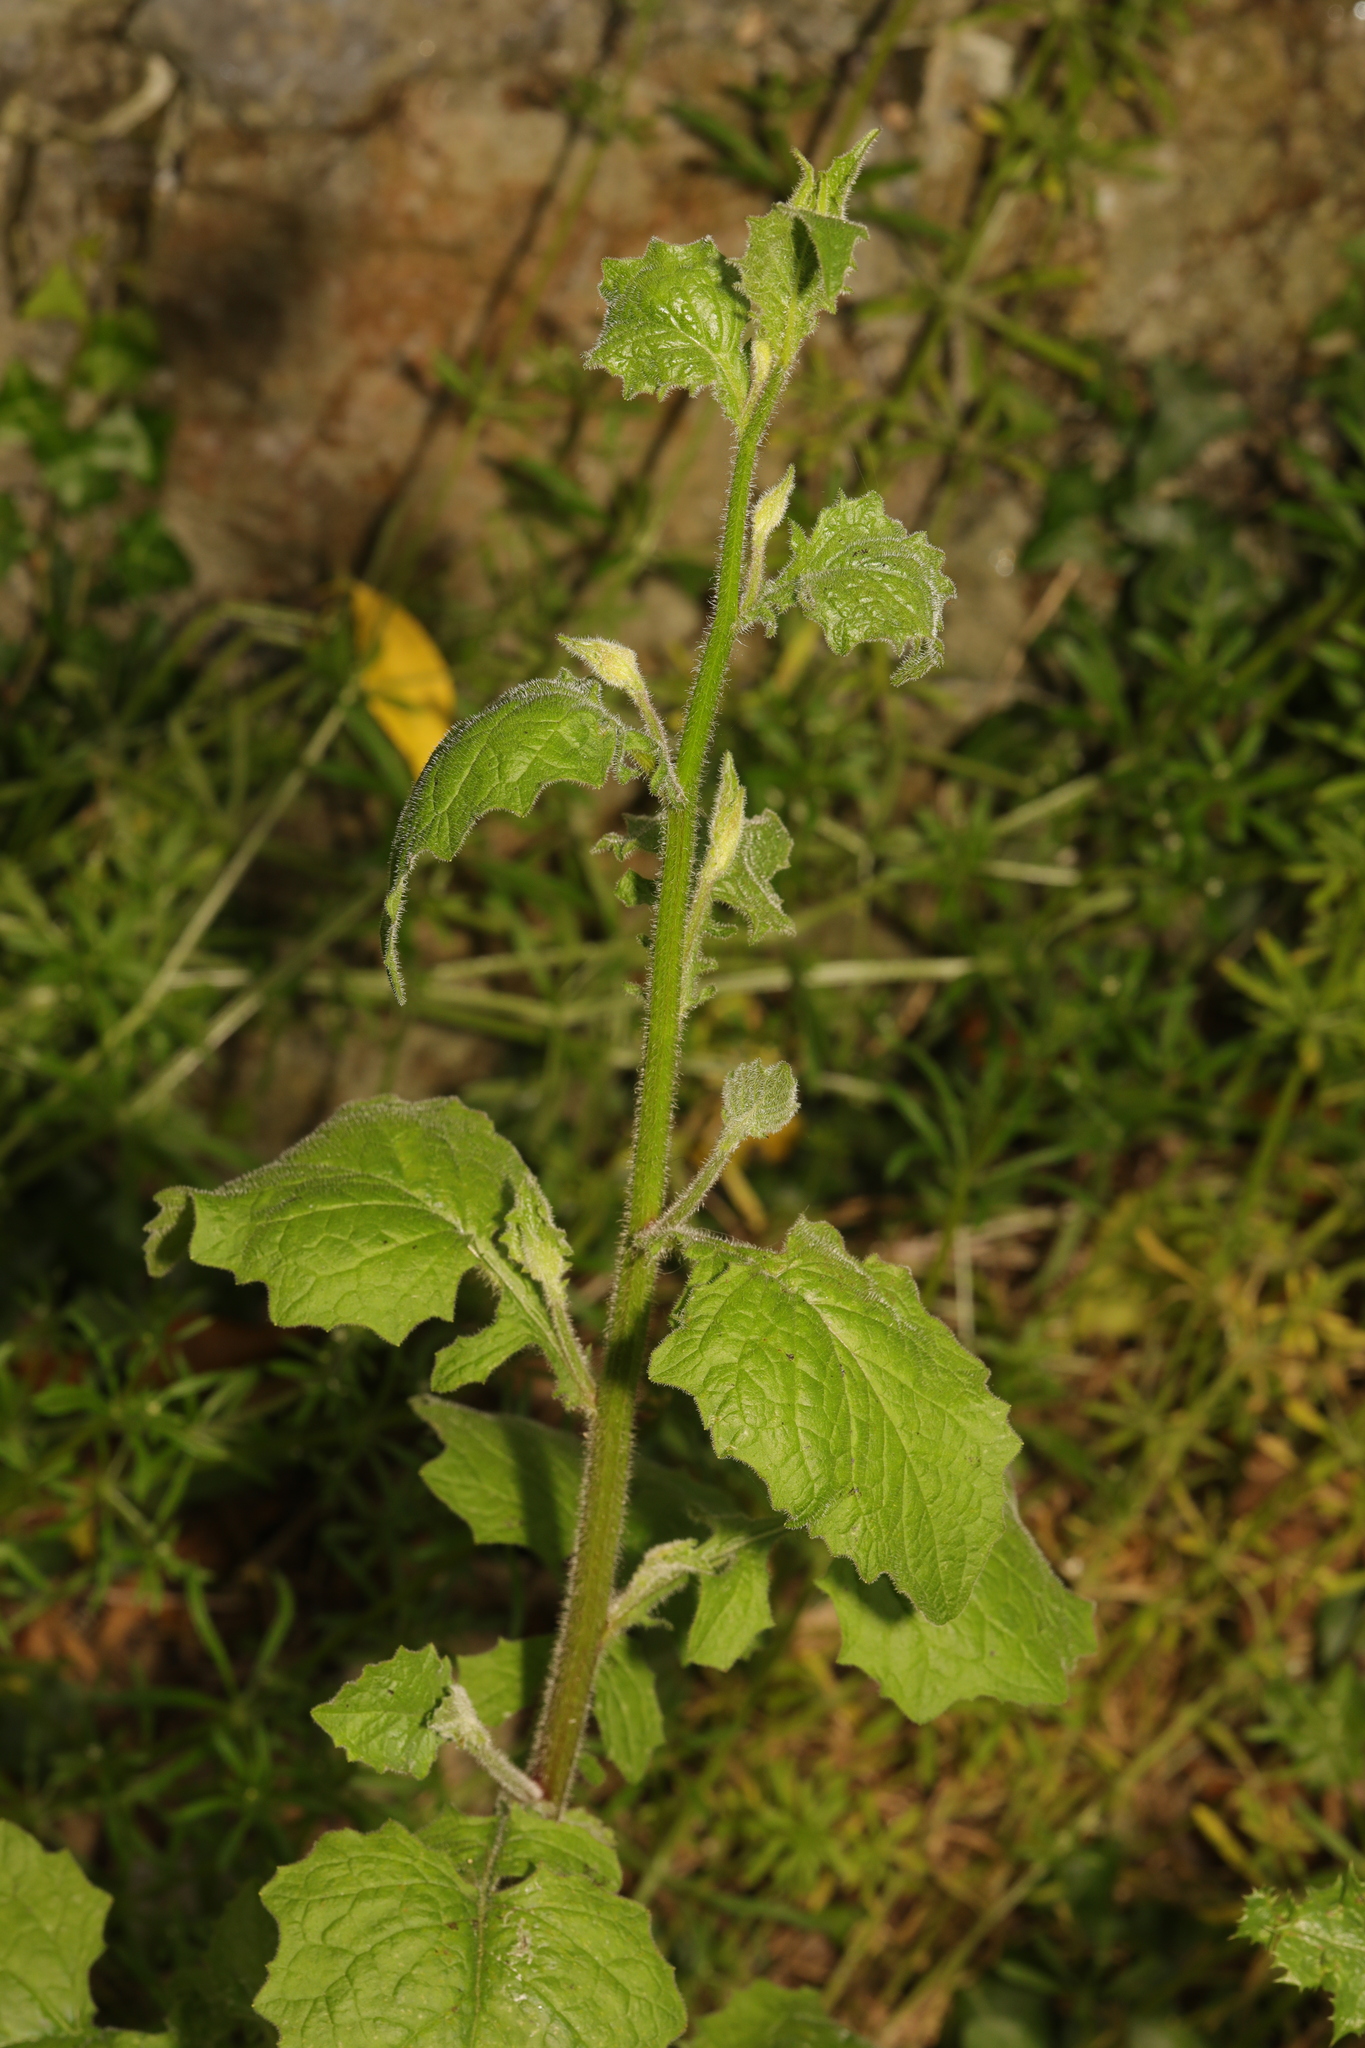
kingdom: Plantae
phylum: Tracheophyta
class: Magnoliopsida
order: Asterales
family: Asteraceae
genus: Lapsana
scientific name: Lapsana communis
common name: Nipplewort
